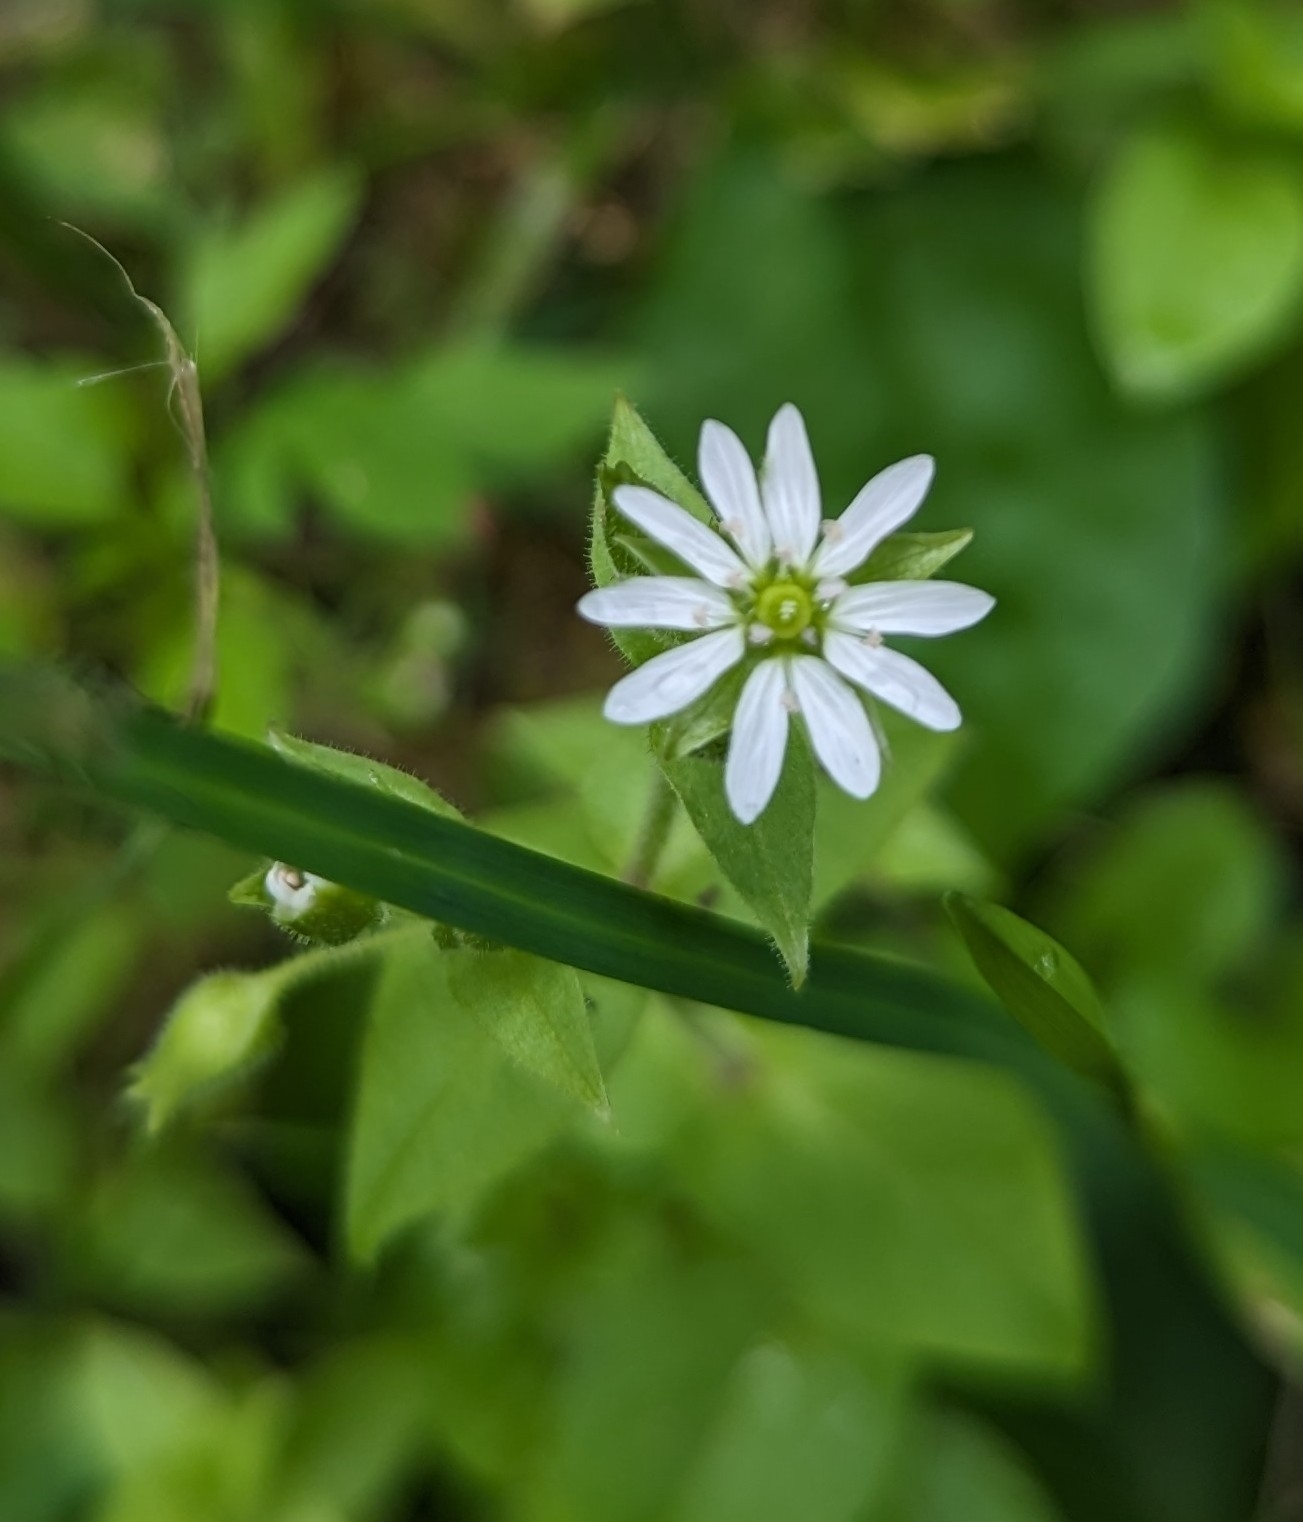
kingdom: Plantae
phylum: Tracheophyta
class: Magnoliopsida
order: Caryophyllales
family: Caryophyllaceae
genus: Stellaria
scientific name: Stellaria aquatica
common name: Water chickweed
